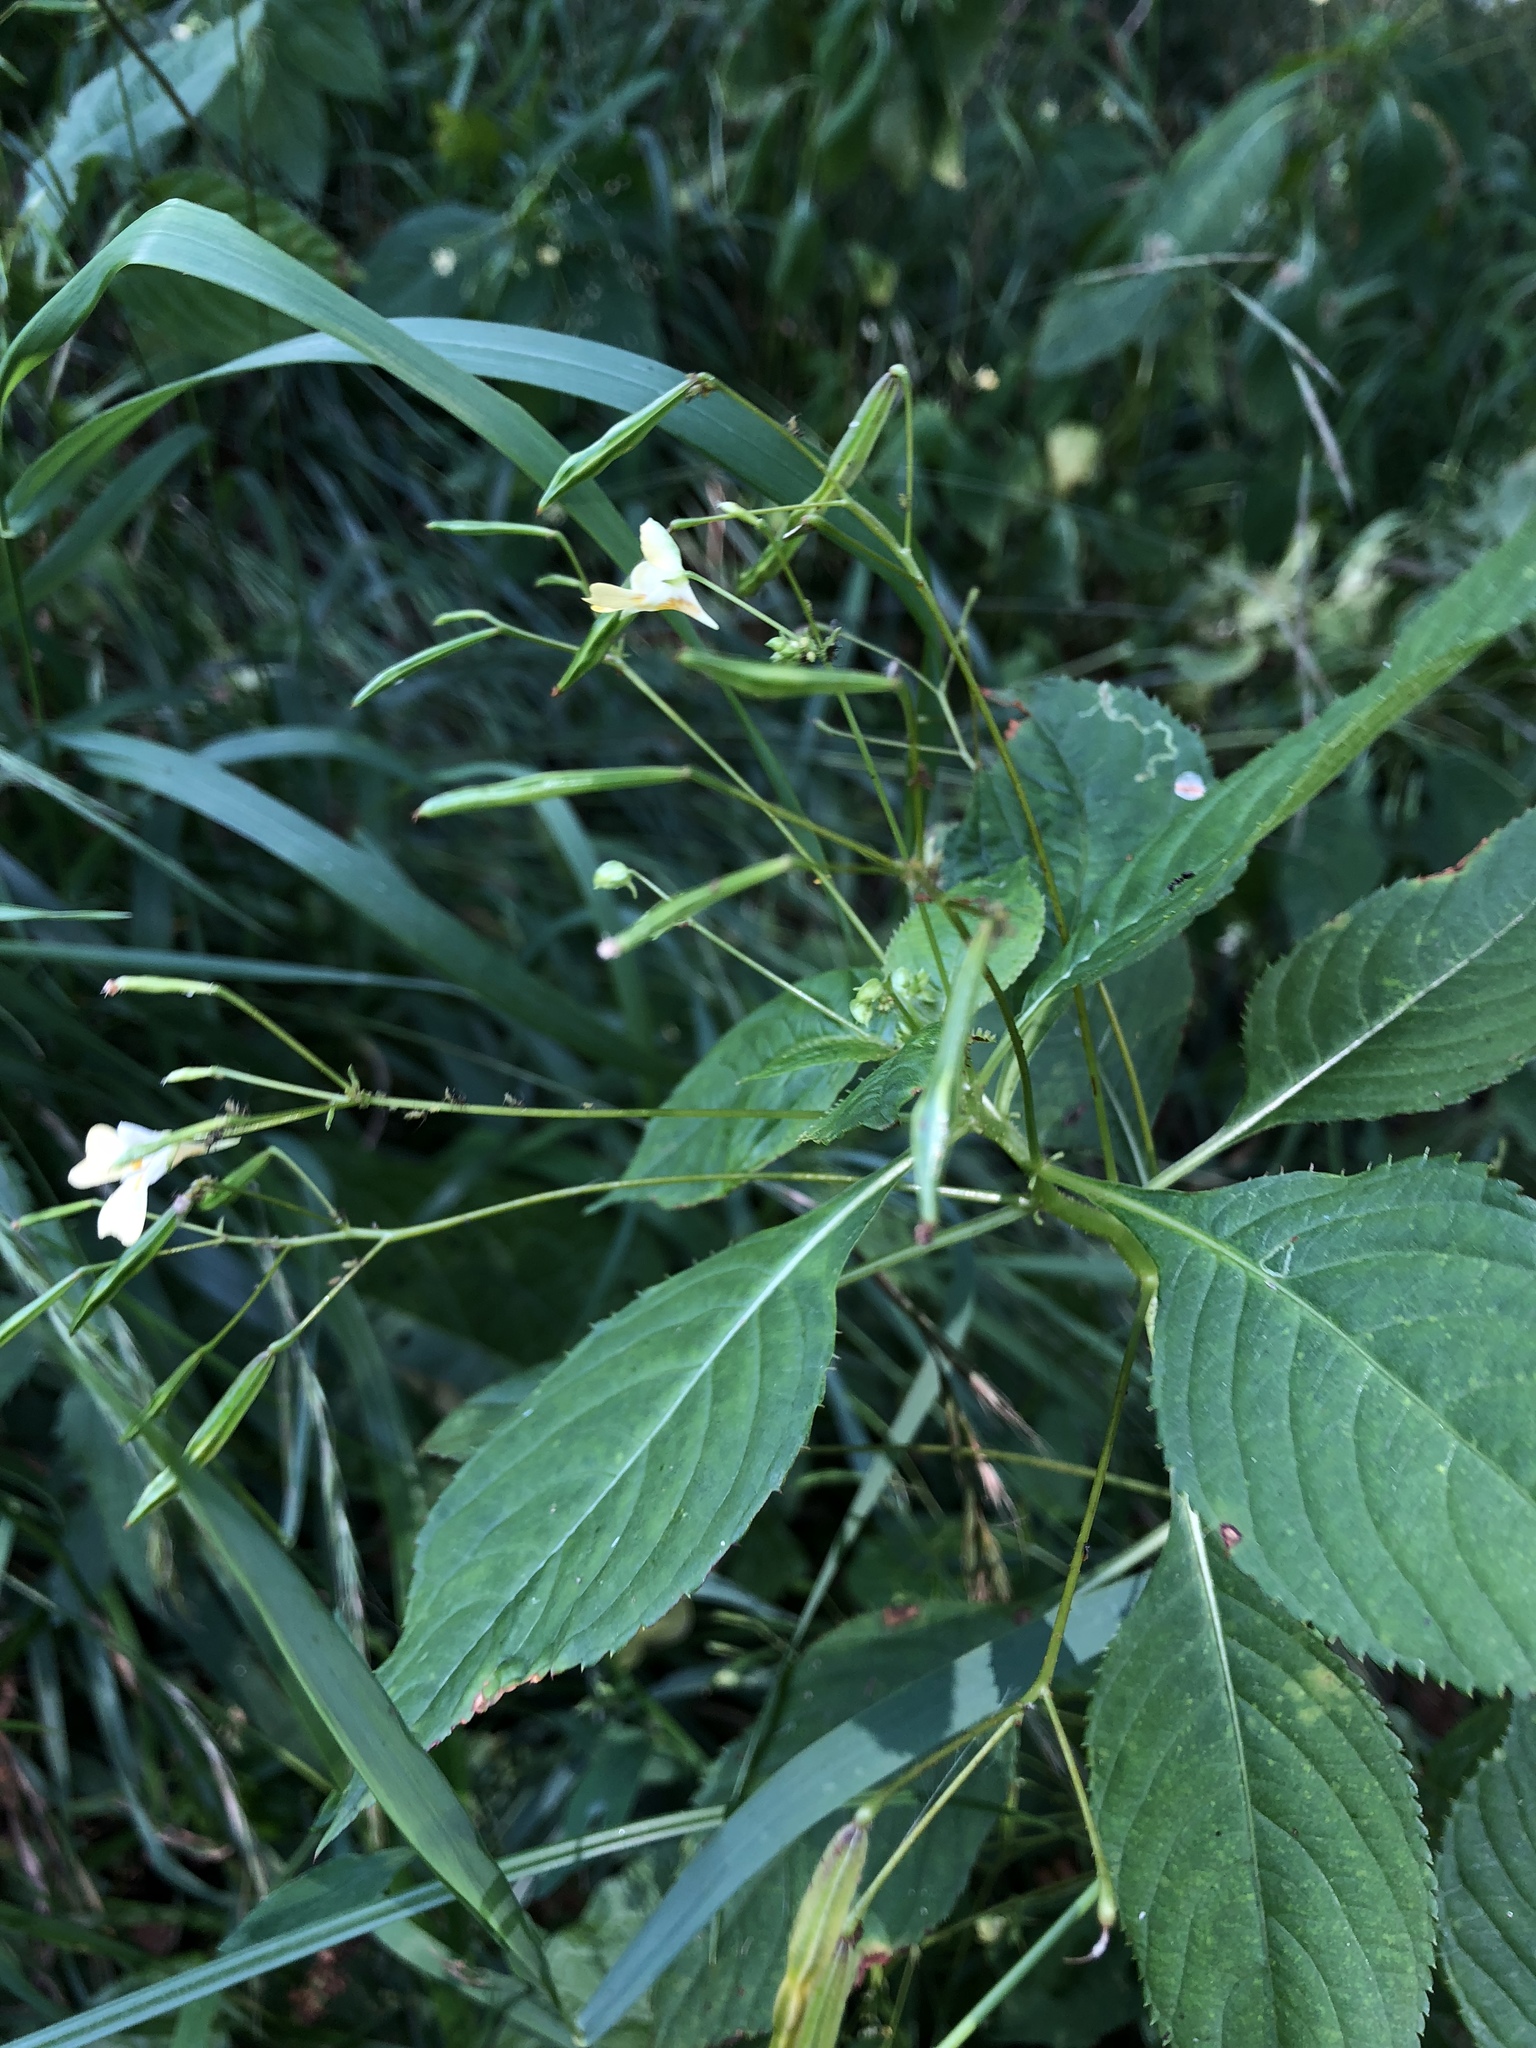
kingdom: Plantae
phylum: Tracheophyta
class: Magnoliopsida
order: Ericales
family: Balsaminaceae
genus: Impatiens
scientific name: Impatiens parviflora
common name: Small balsam
